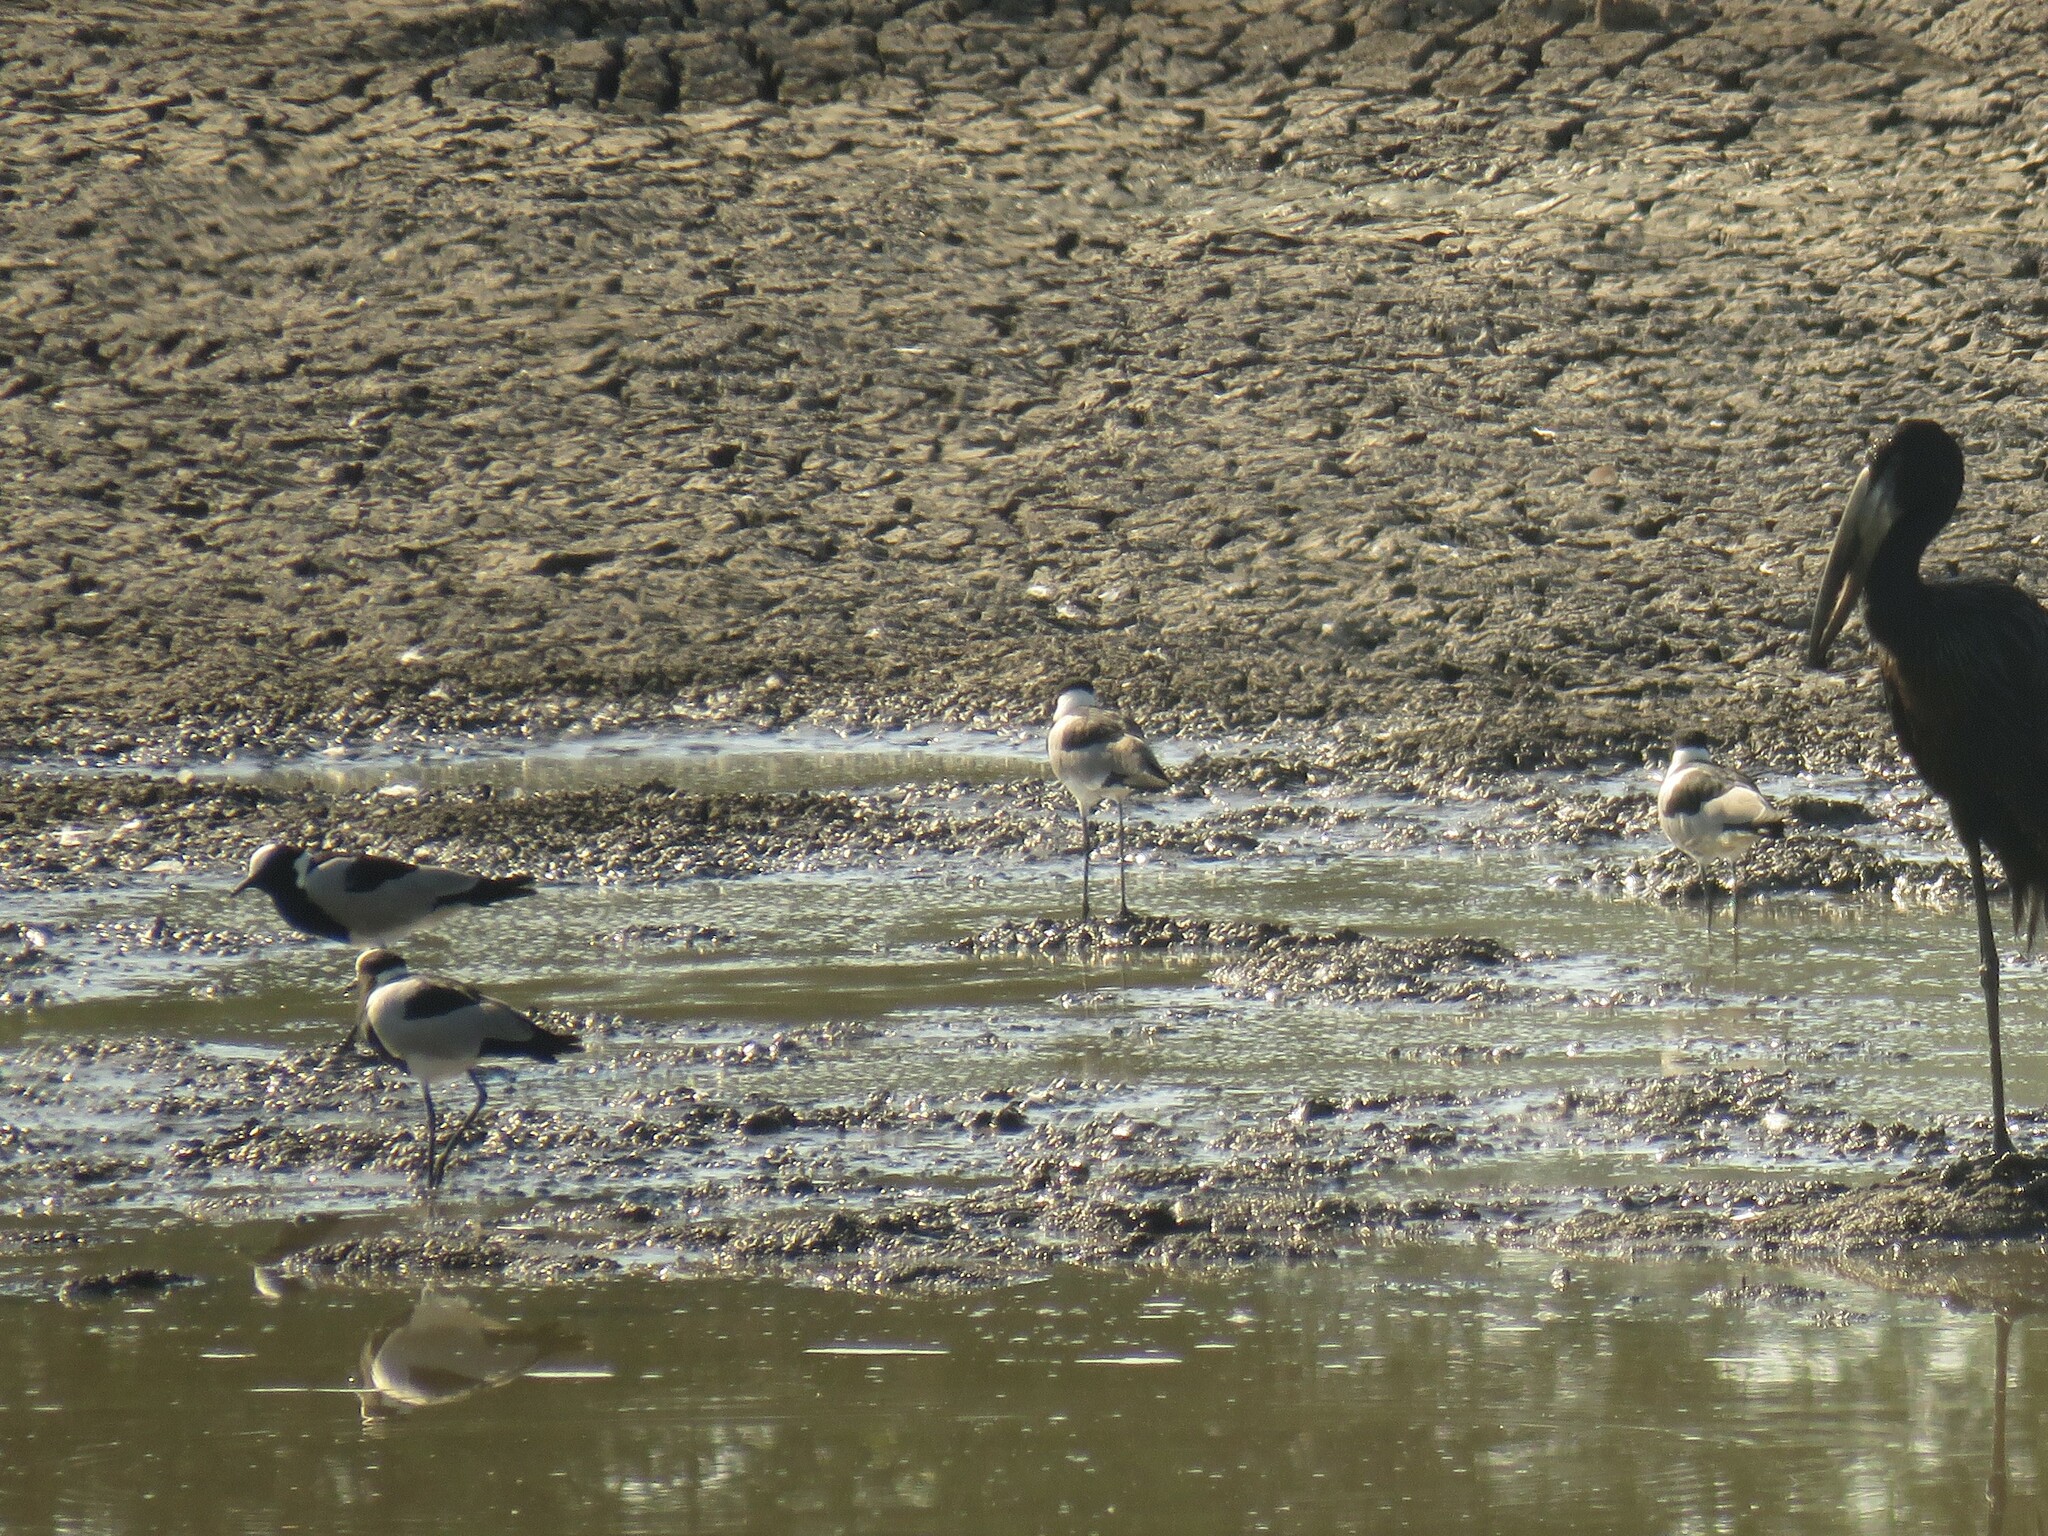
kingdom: Animalia
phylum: Chordata
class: Aves
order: Charadriiformes
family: Charadriidae
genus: Vanellus
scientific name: Vanellus armatus
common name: Blacksmith lapwing
